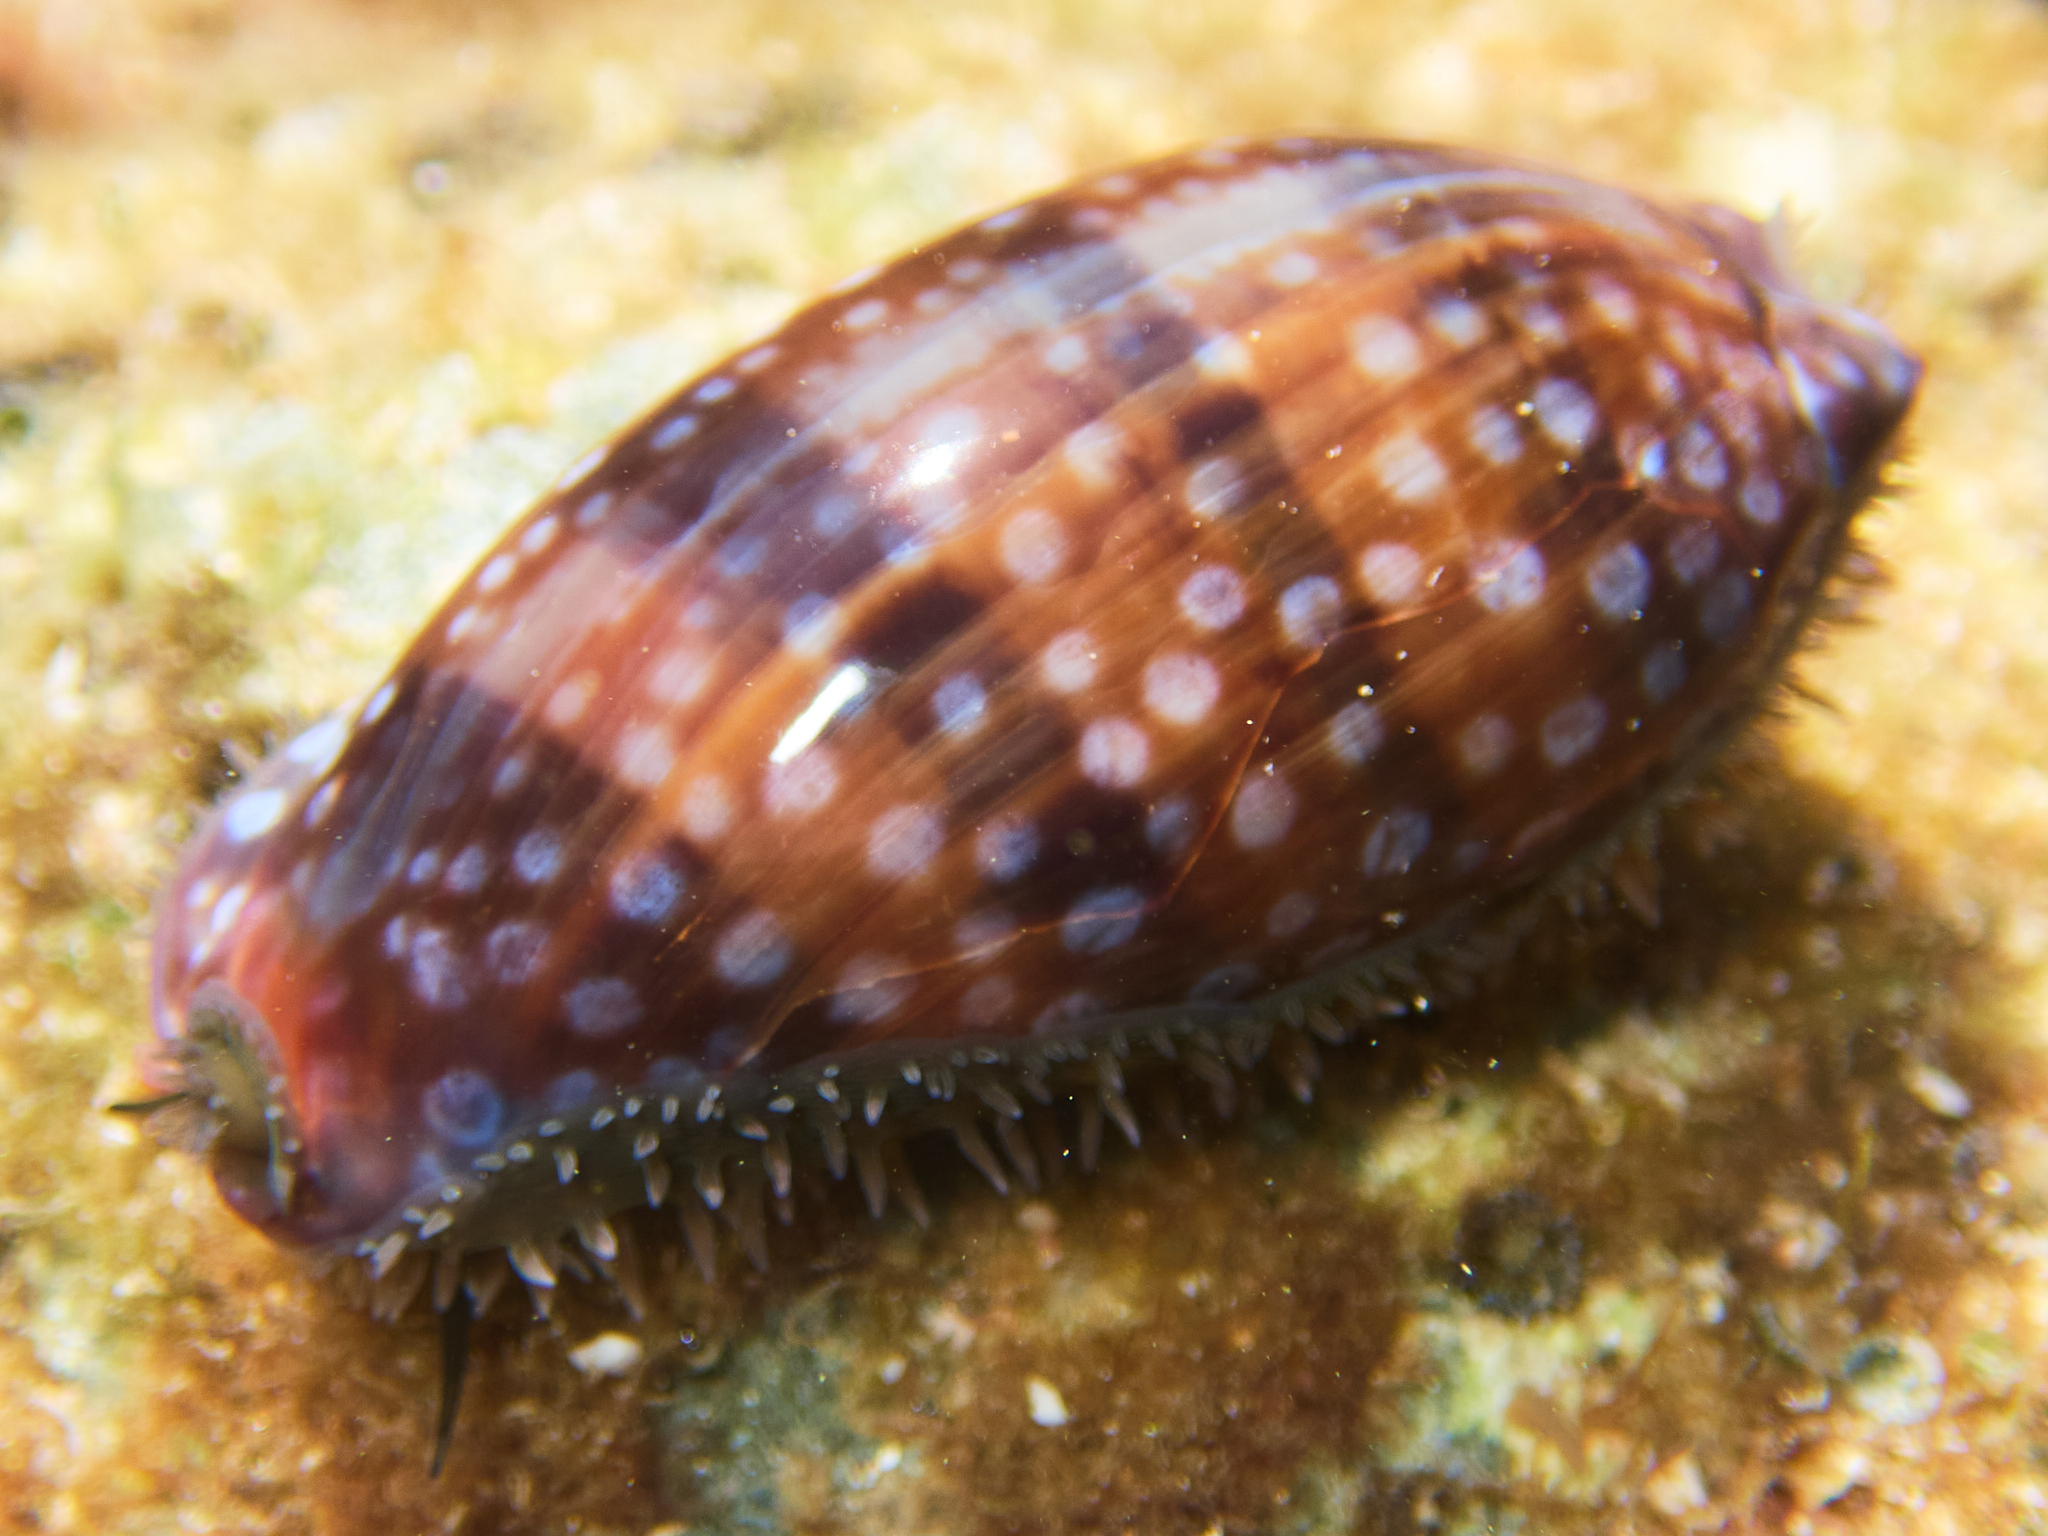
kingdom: Animalia
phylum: Mollusca
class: Gastropoda
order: Littorinimorpha
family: Cypraeidae
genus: Macrocypraea
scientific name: Macrocypraea cervinetta
